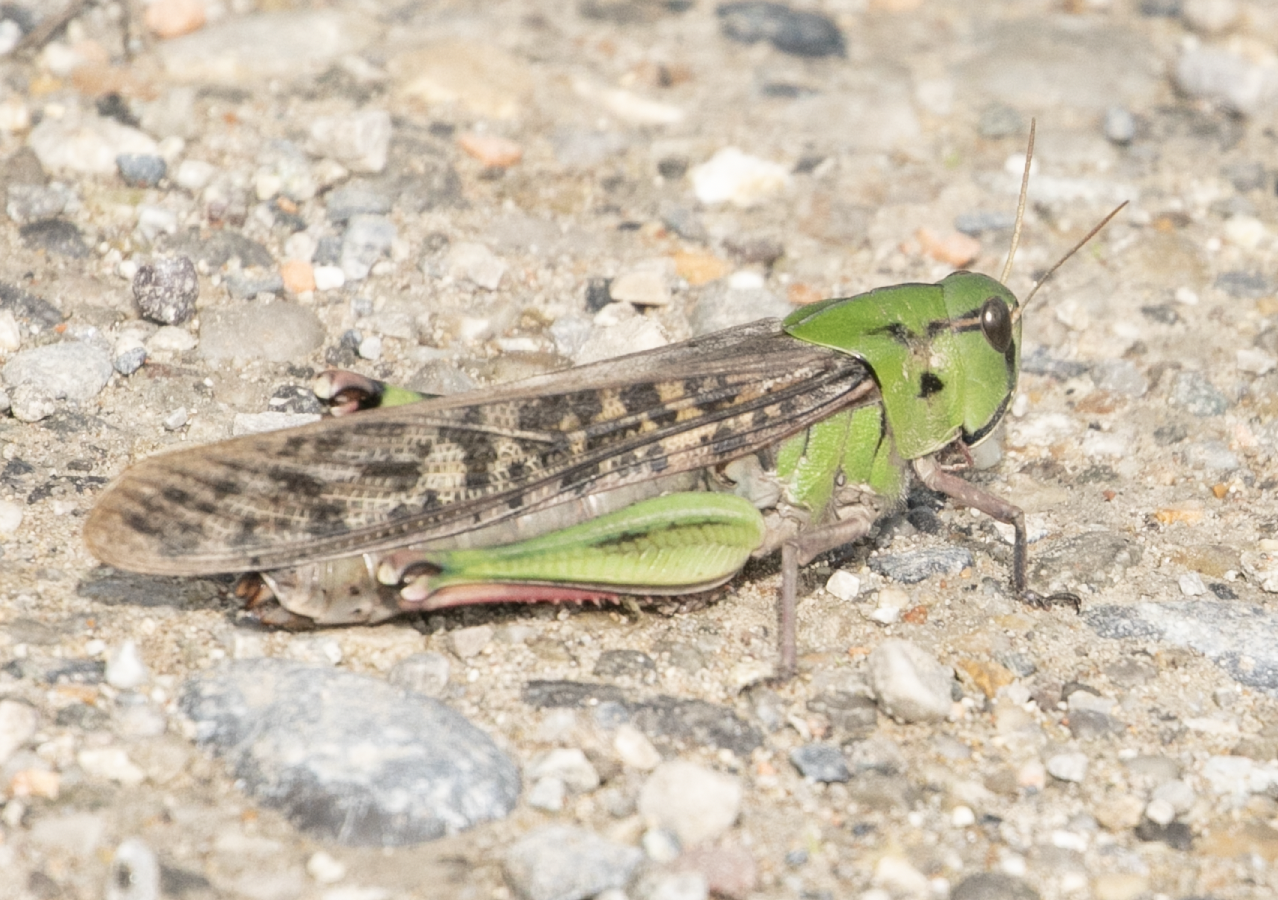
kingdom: Animalia
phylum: Arthropoda
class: Insecta
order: Orthoptera
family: Acrididae
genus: Locusta
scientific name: Locusta migratoria
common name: Migratory locust
